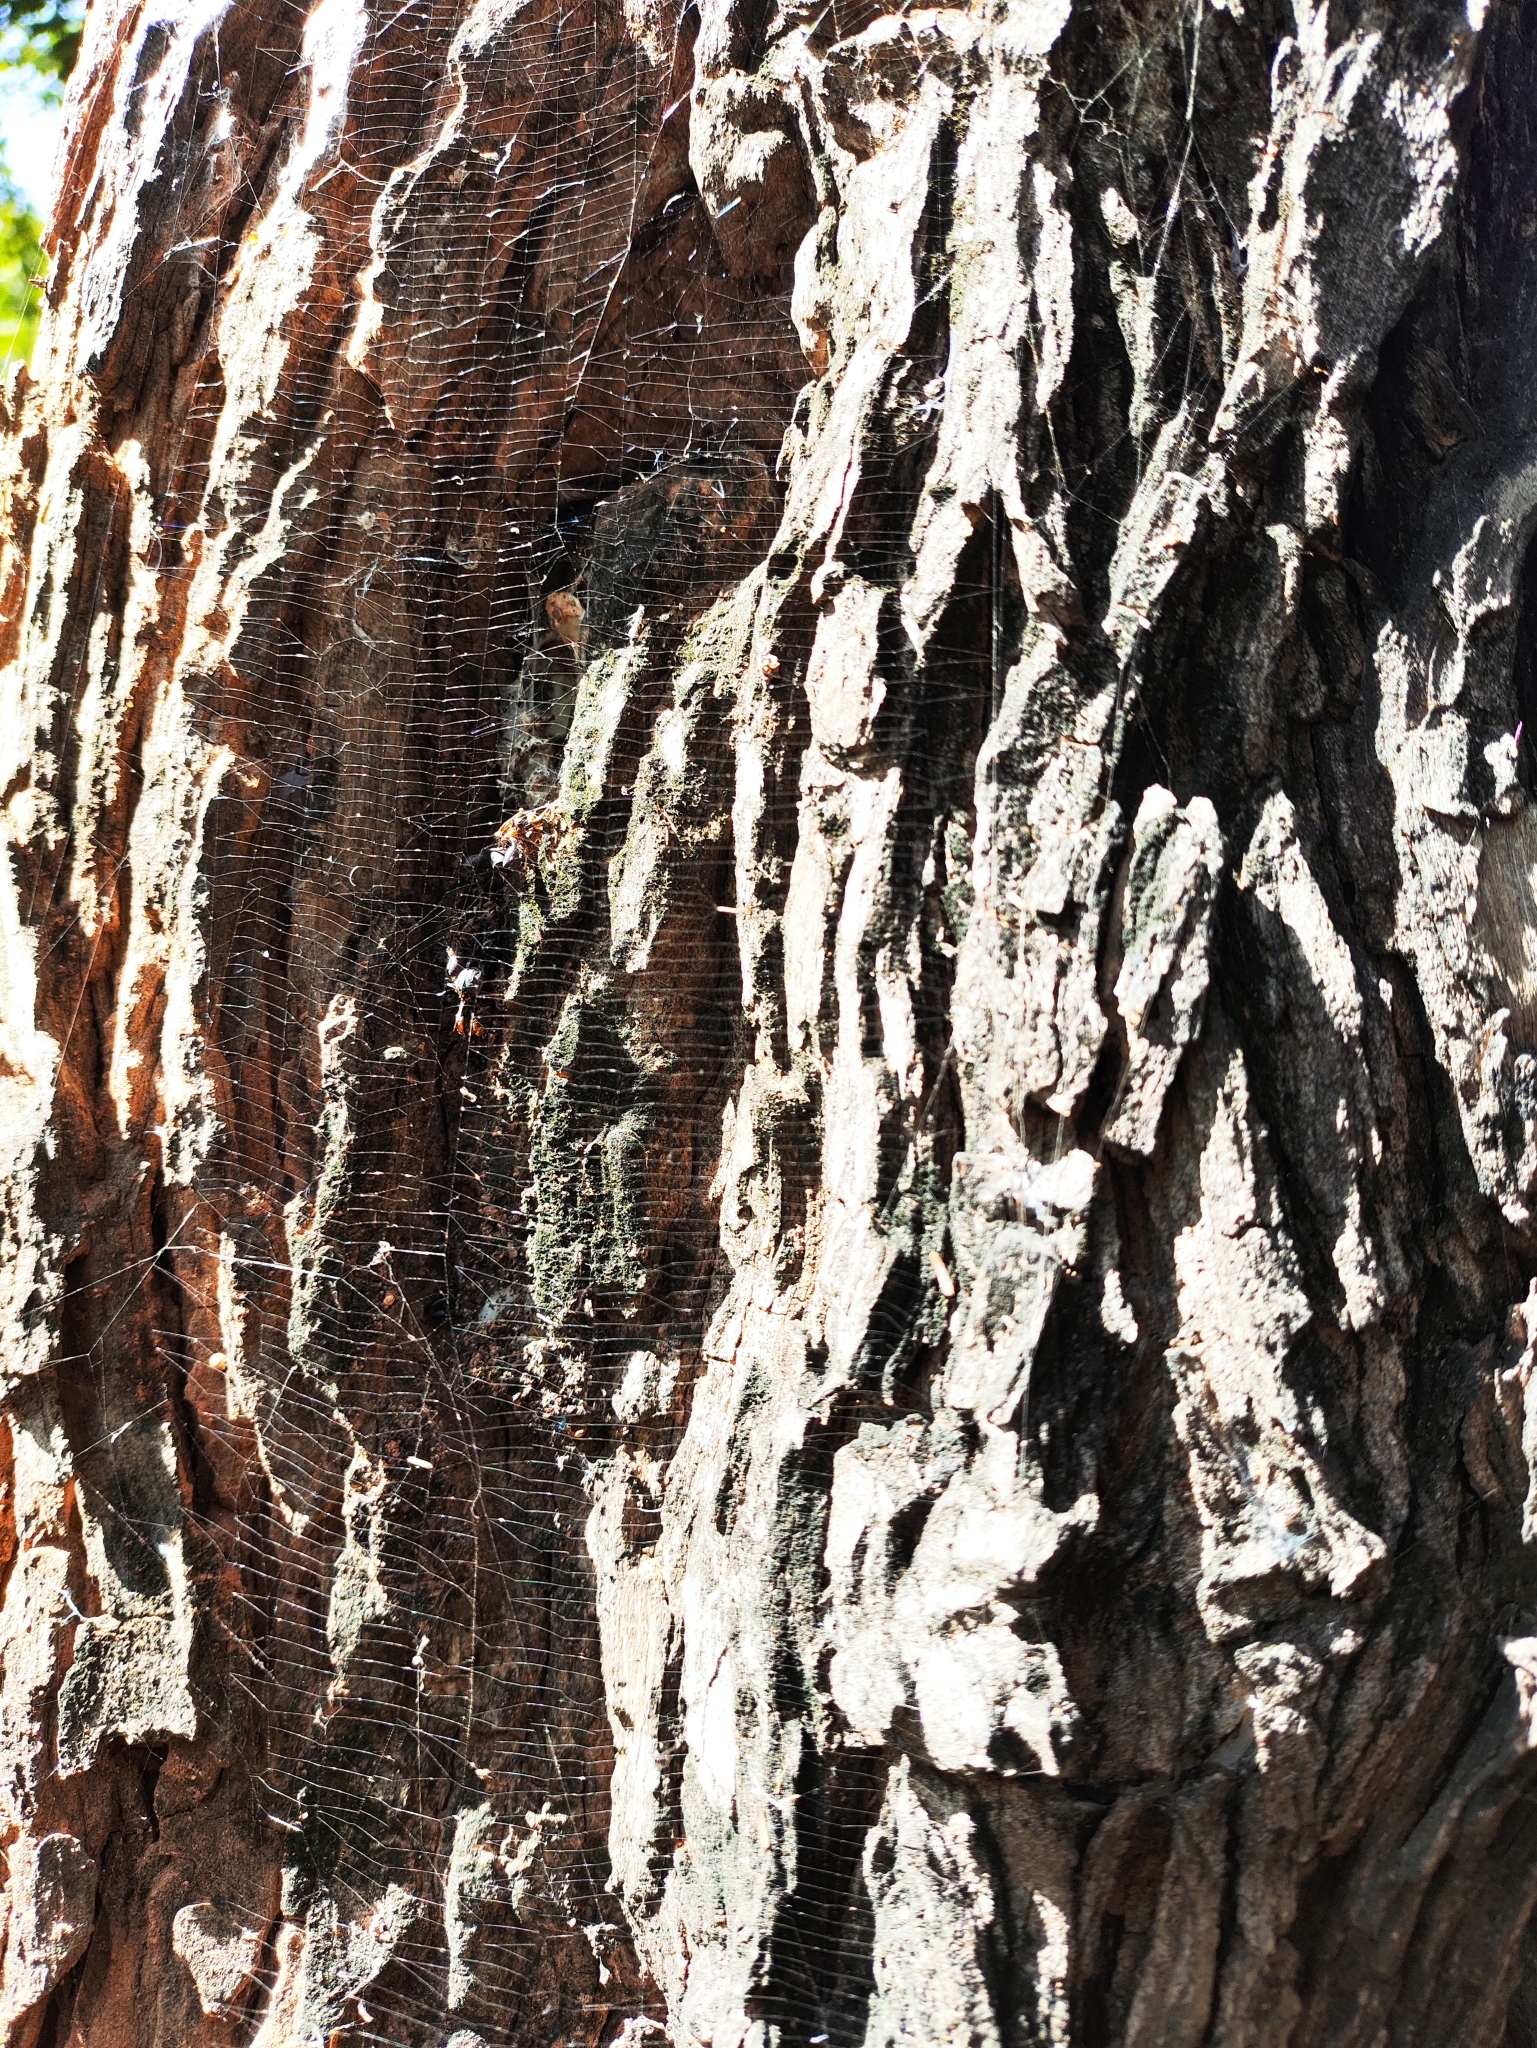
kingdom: Animalia
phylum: Arthropoda
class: Arachnida
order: Araneae
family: Araneidae
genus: Herennia
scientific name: Herennia multipuncta
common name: Spotted coin spider
